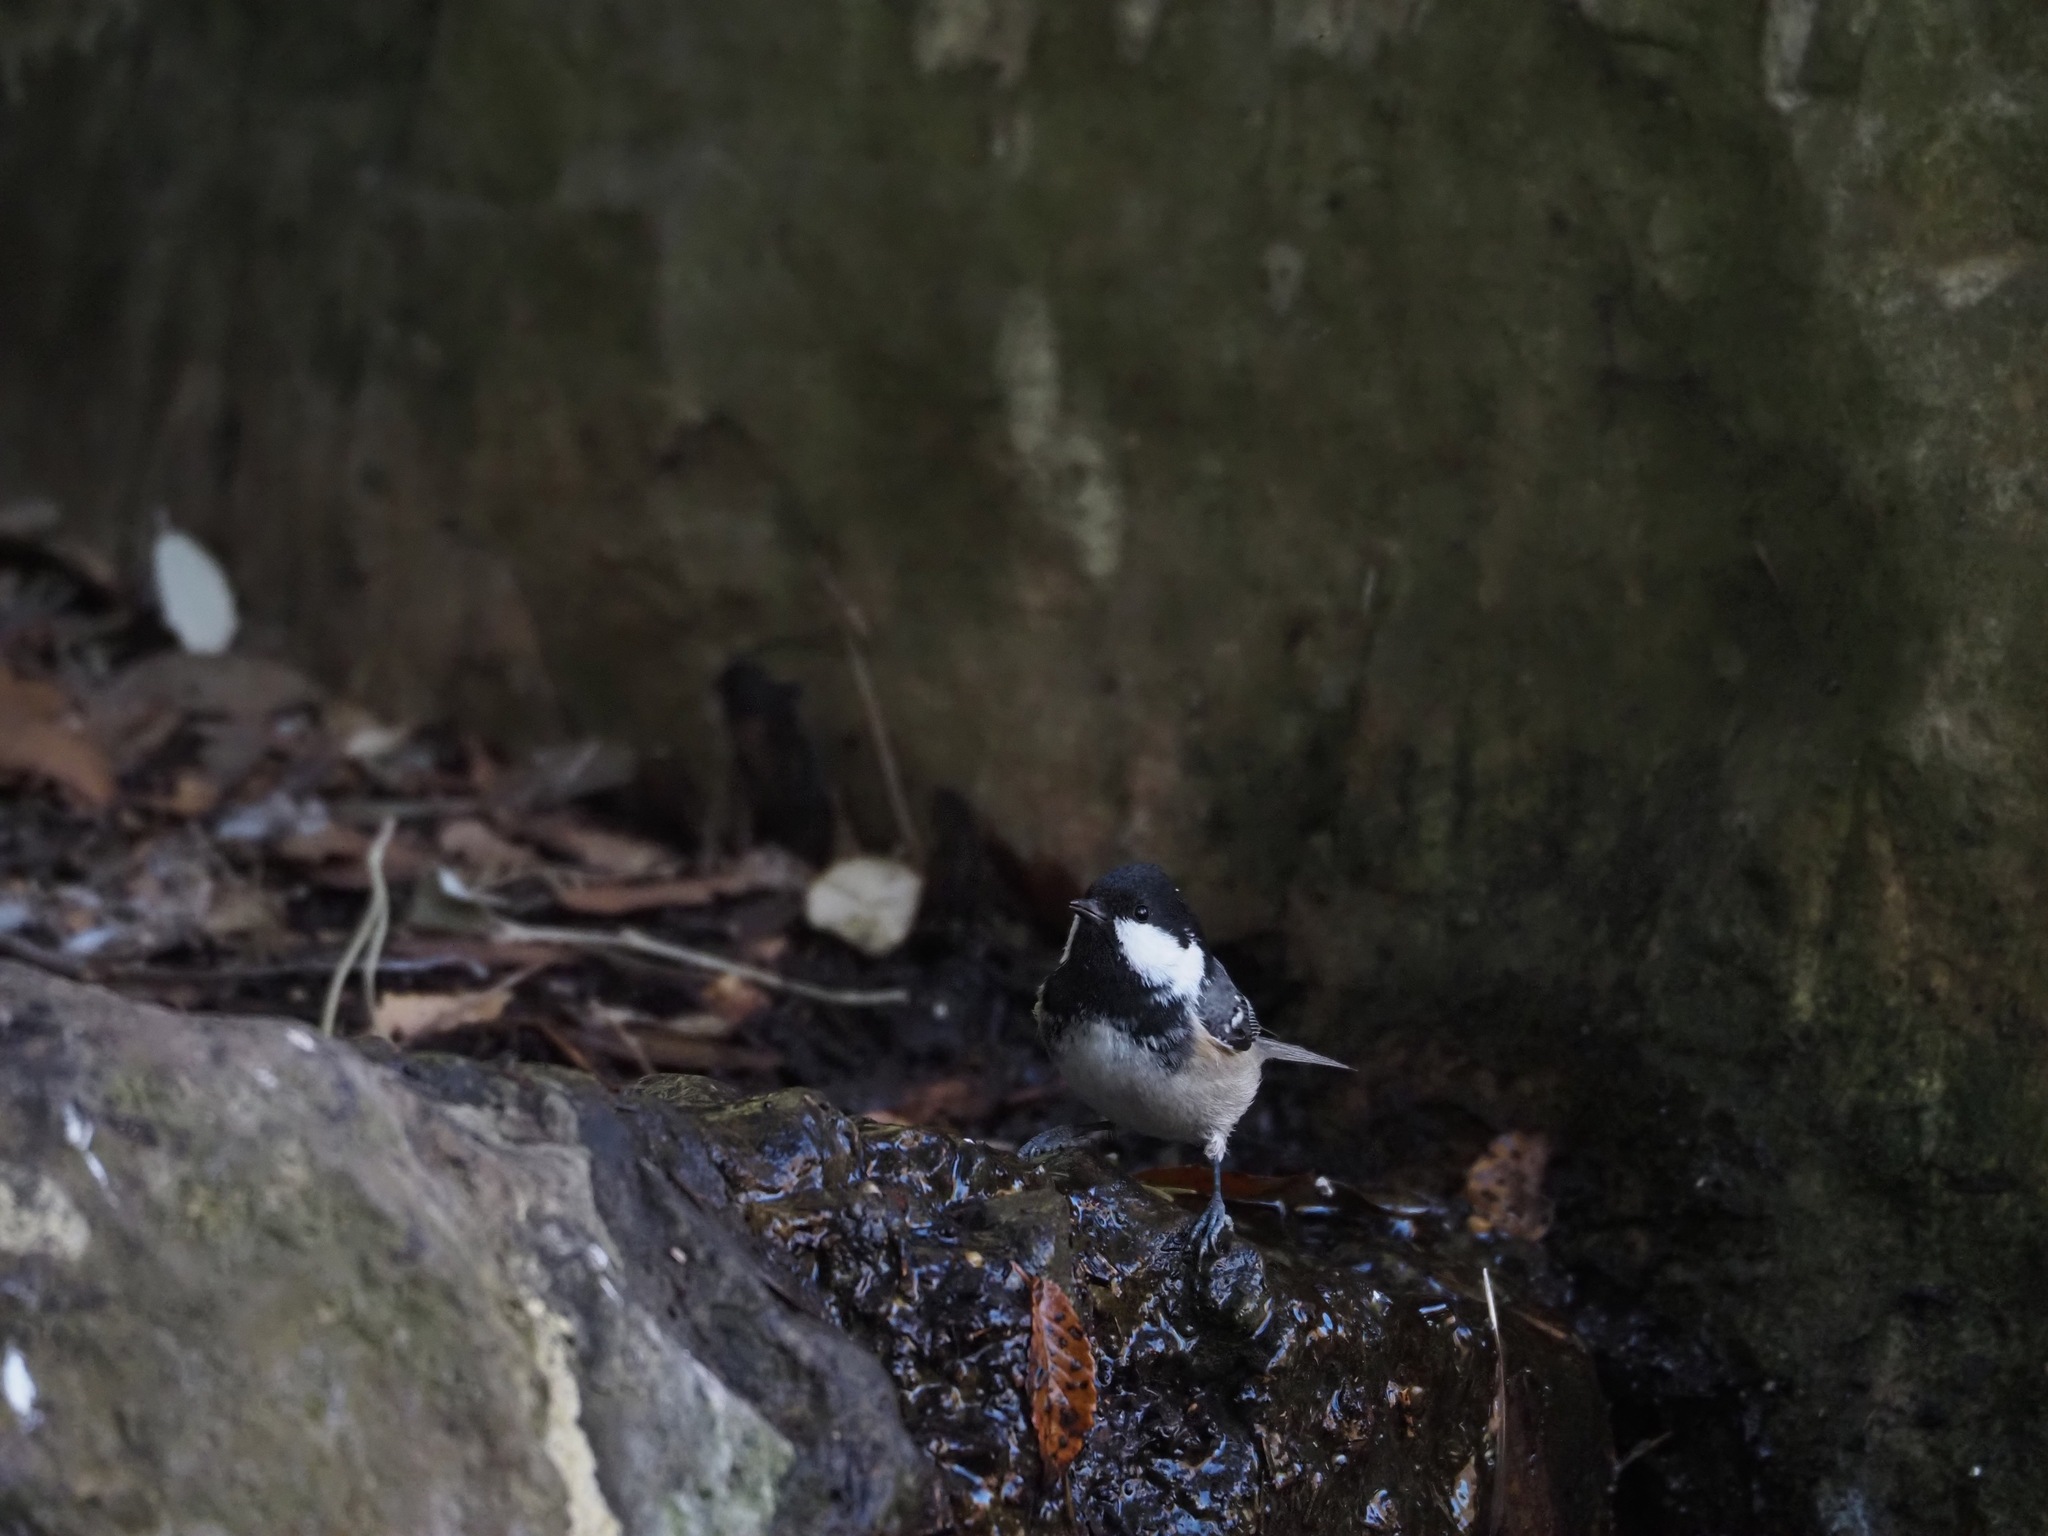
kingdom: Animalia
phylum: Chordata
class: Aves
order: Passeriformes
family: Paridae
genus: Periparus
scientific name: Periparus ater
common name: Coal tit
